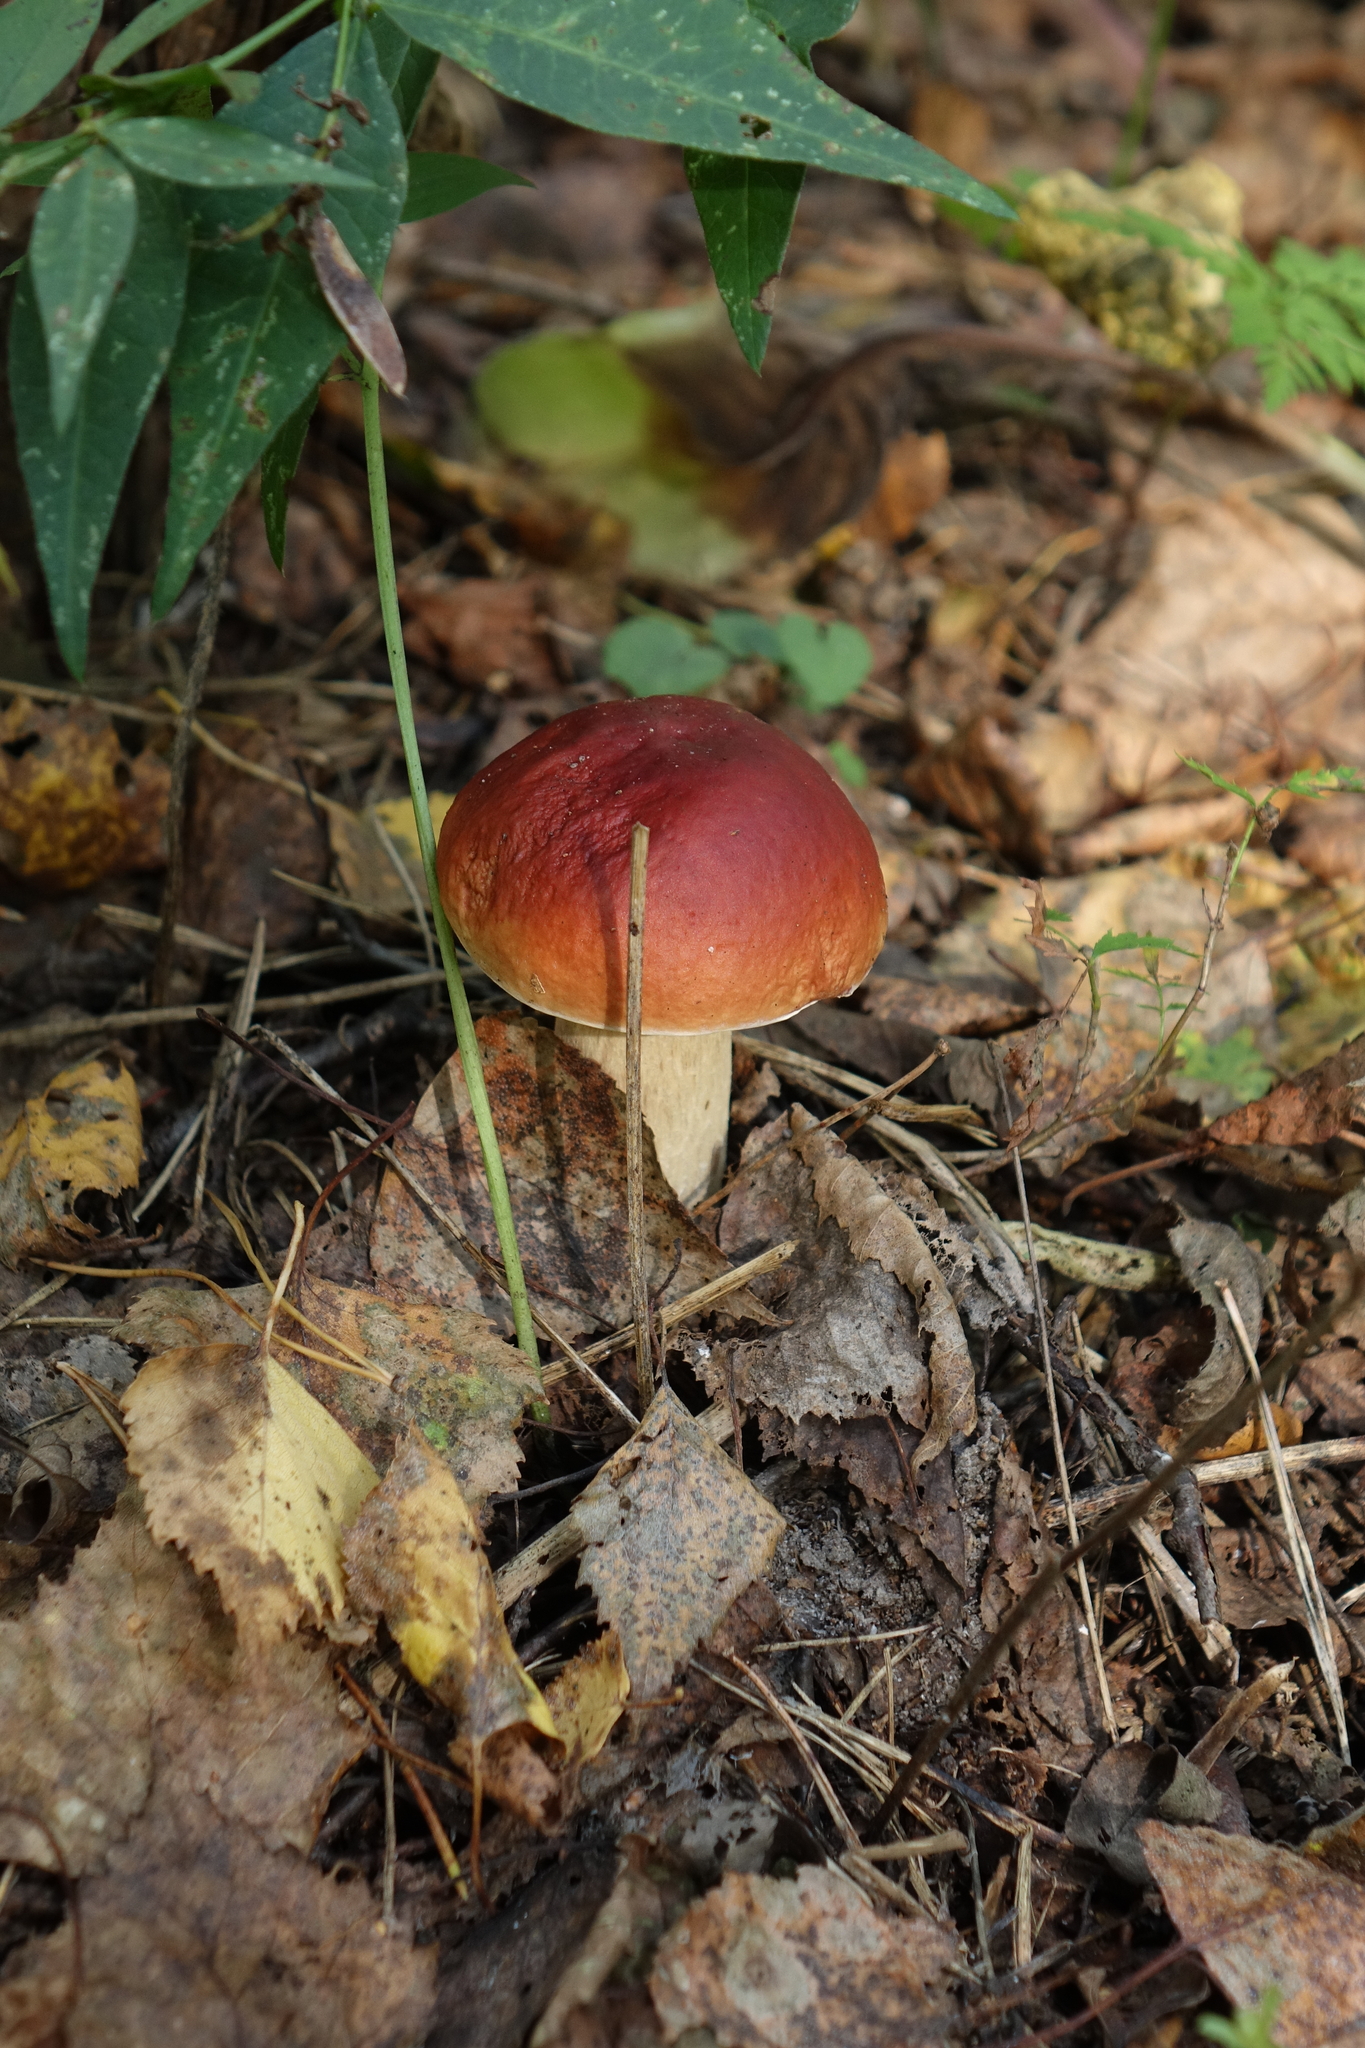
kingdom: Fungi
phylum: Basidiomycota
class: Agaricomycetes
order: Boletales
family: Boletaceae
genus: Boletus
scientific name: Boletus pinophilus
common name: Pine bolete
